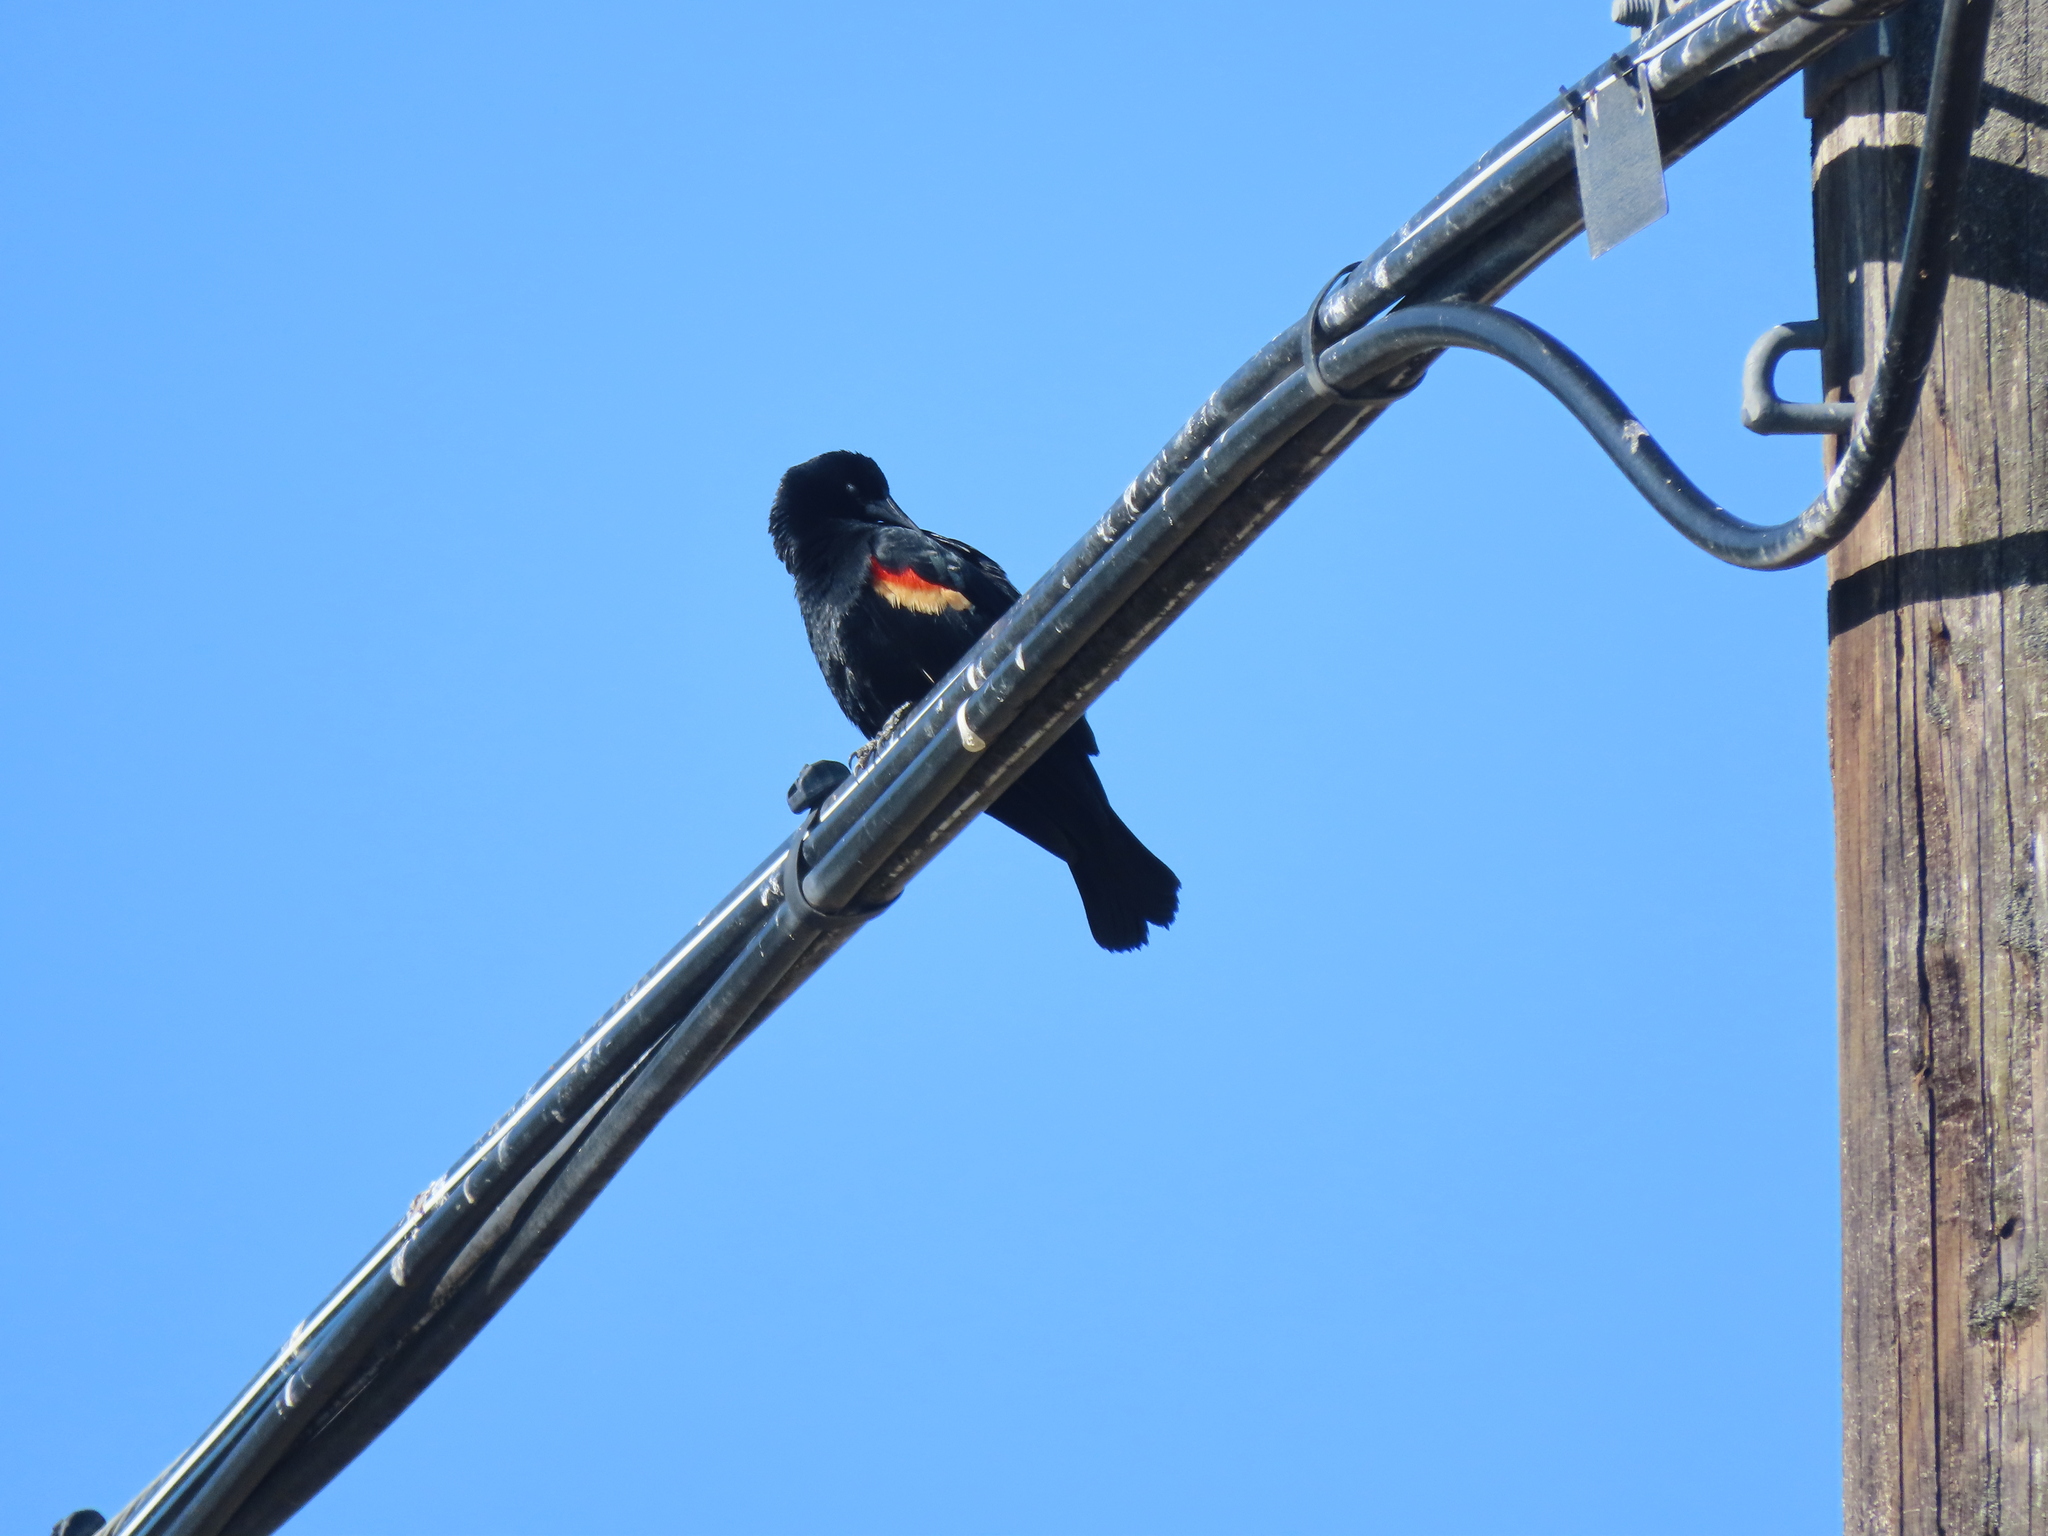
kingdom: Animalia
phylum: Chordata
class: Aves
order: Passeriformes
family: Icteridae
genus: Agelaius
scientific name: Agelaius phoeniceus
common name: Red-winged blackbird
